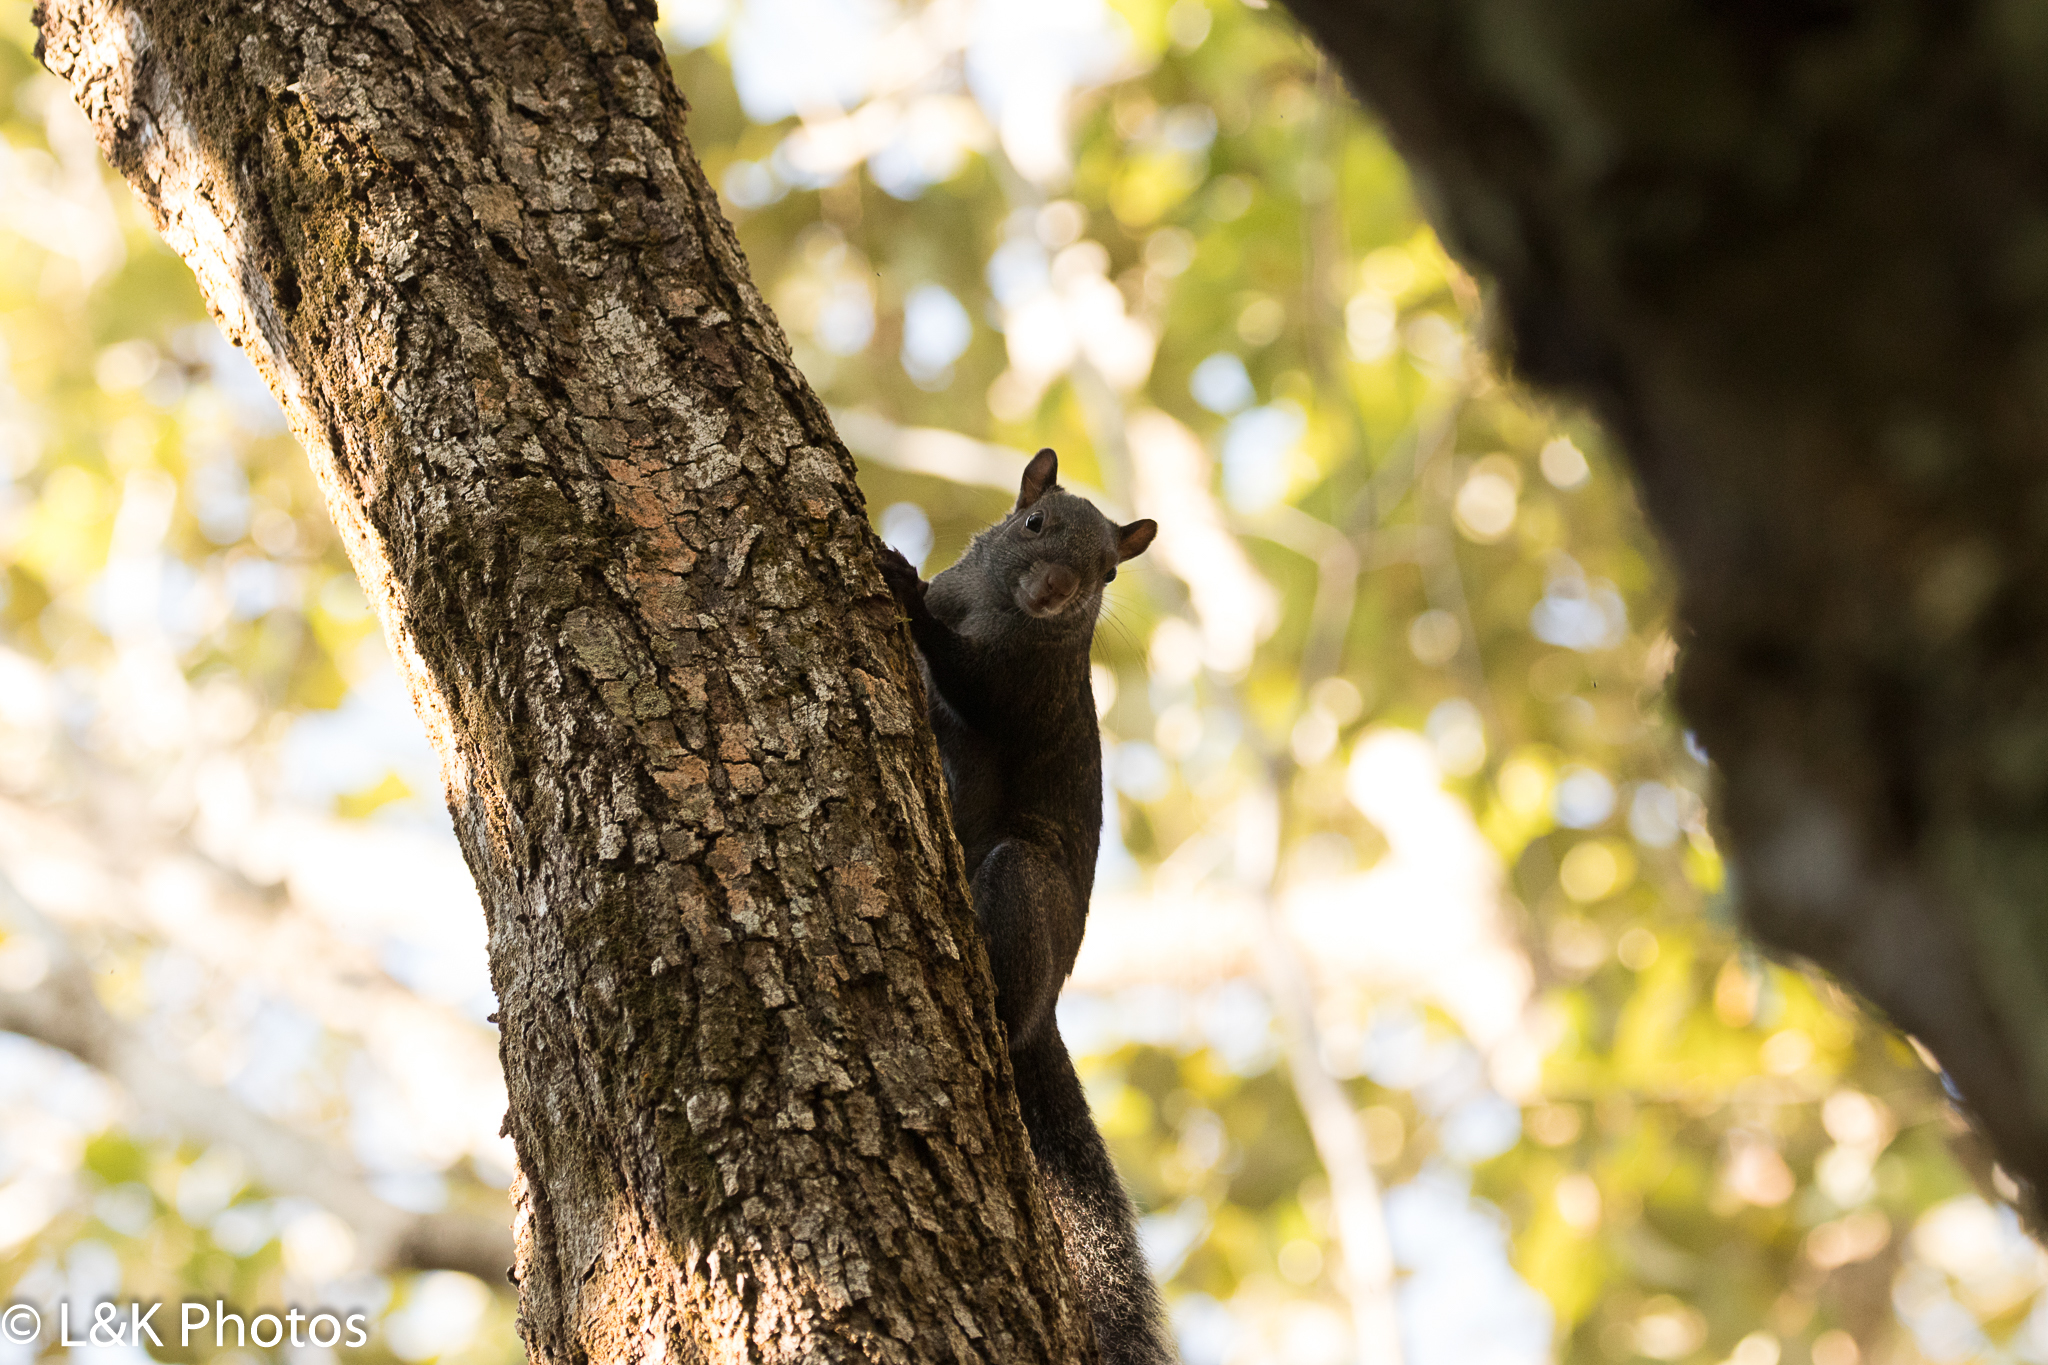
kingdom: Animalia
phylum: Chordata
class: Mammalia
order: Rodentia
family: Sciuridae
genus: Sciurus
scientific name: Sciurus yucatanensis
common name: Yucatan squirrel
